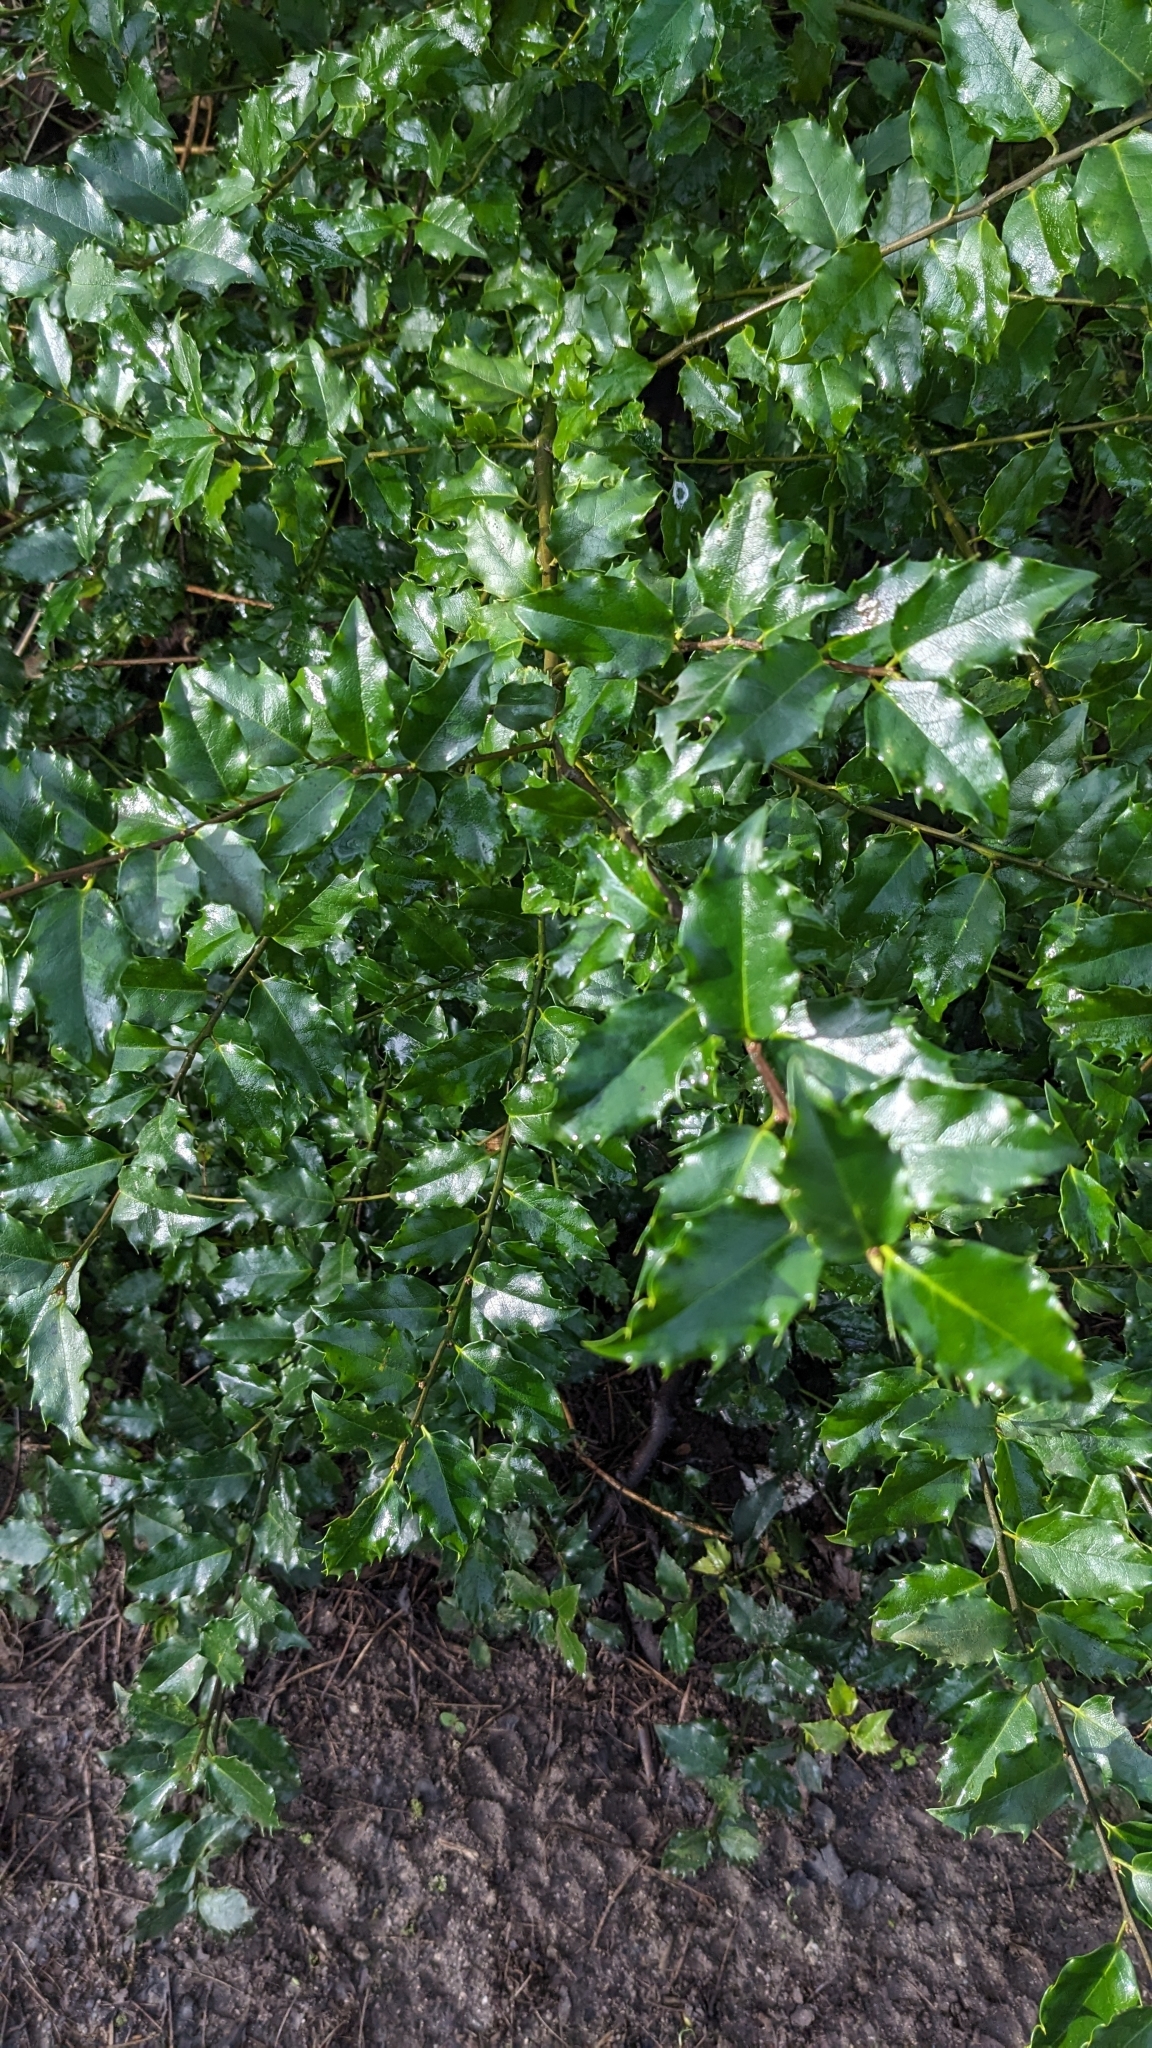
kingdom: Plantae
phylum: Tracheophyta
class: Magnoliopsida
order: Aquifoliales
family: Aquifoliaceae
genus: Ilex
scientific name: Ilex aquifolium
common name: English holly
